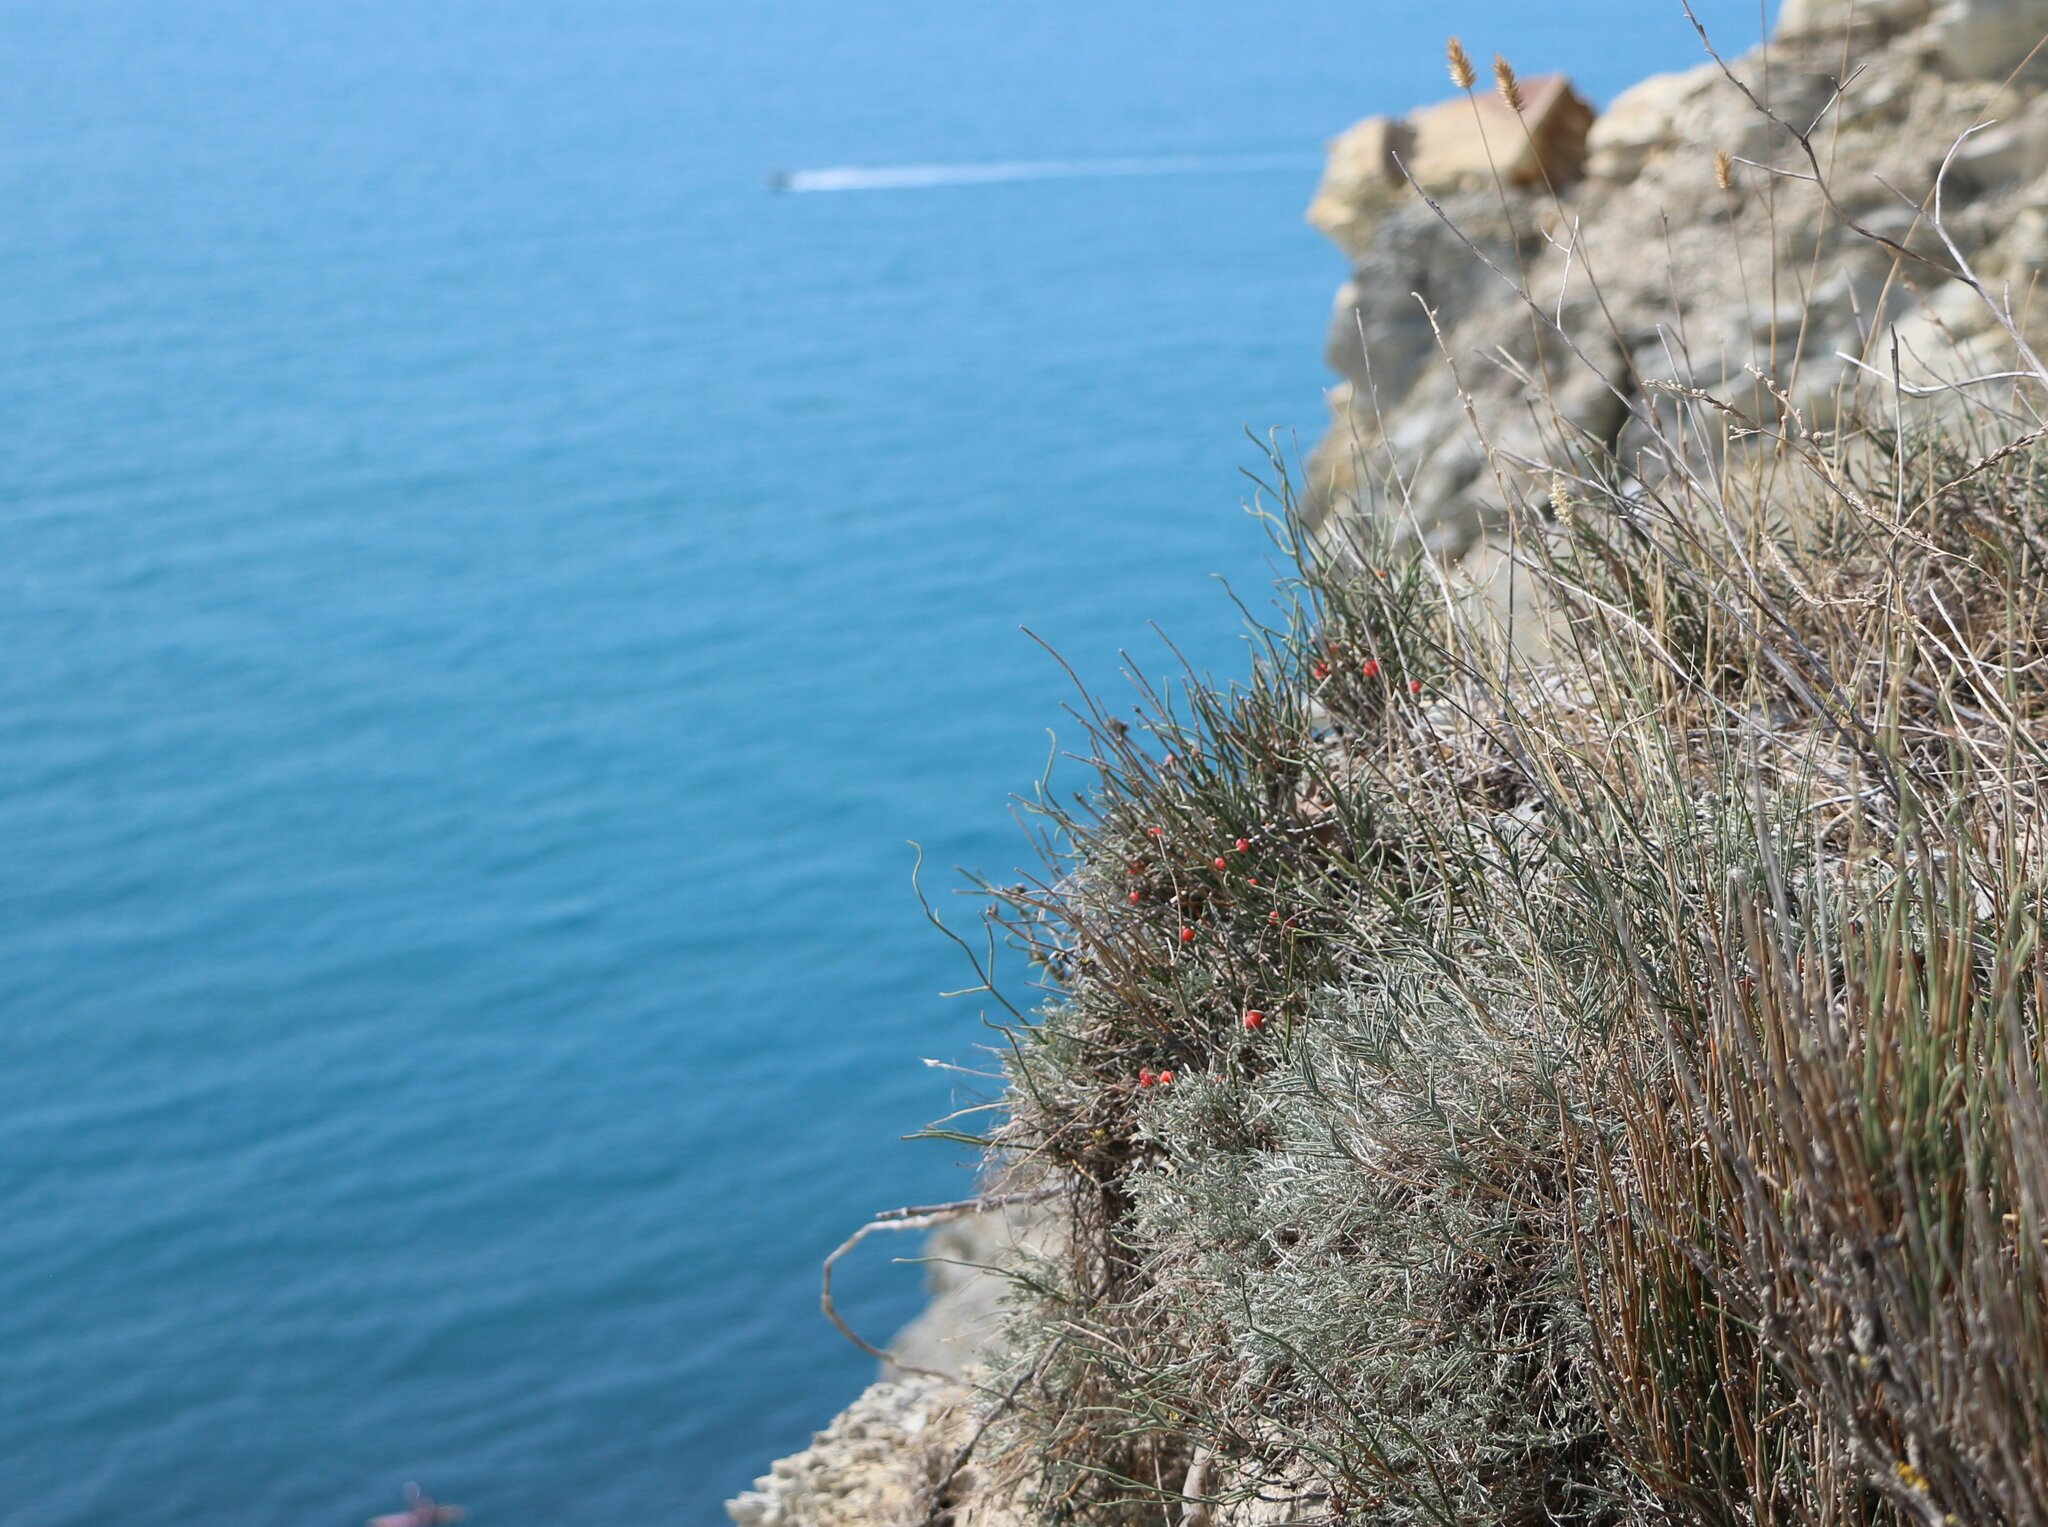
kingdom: Plantae
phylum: Tracheophyta
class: Gnetopsida
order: Ephedrales
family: Ephedraceae
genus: Ephedra
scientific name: Ephedra distachya
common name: Sea grape
